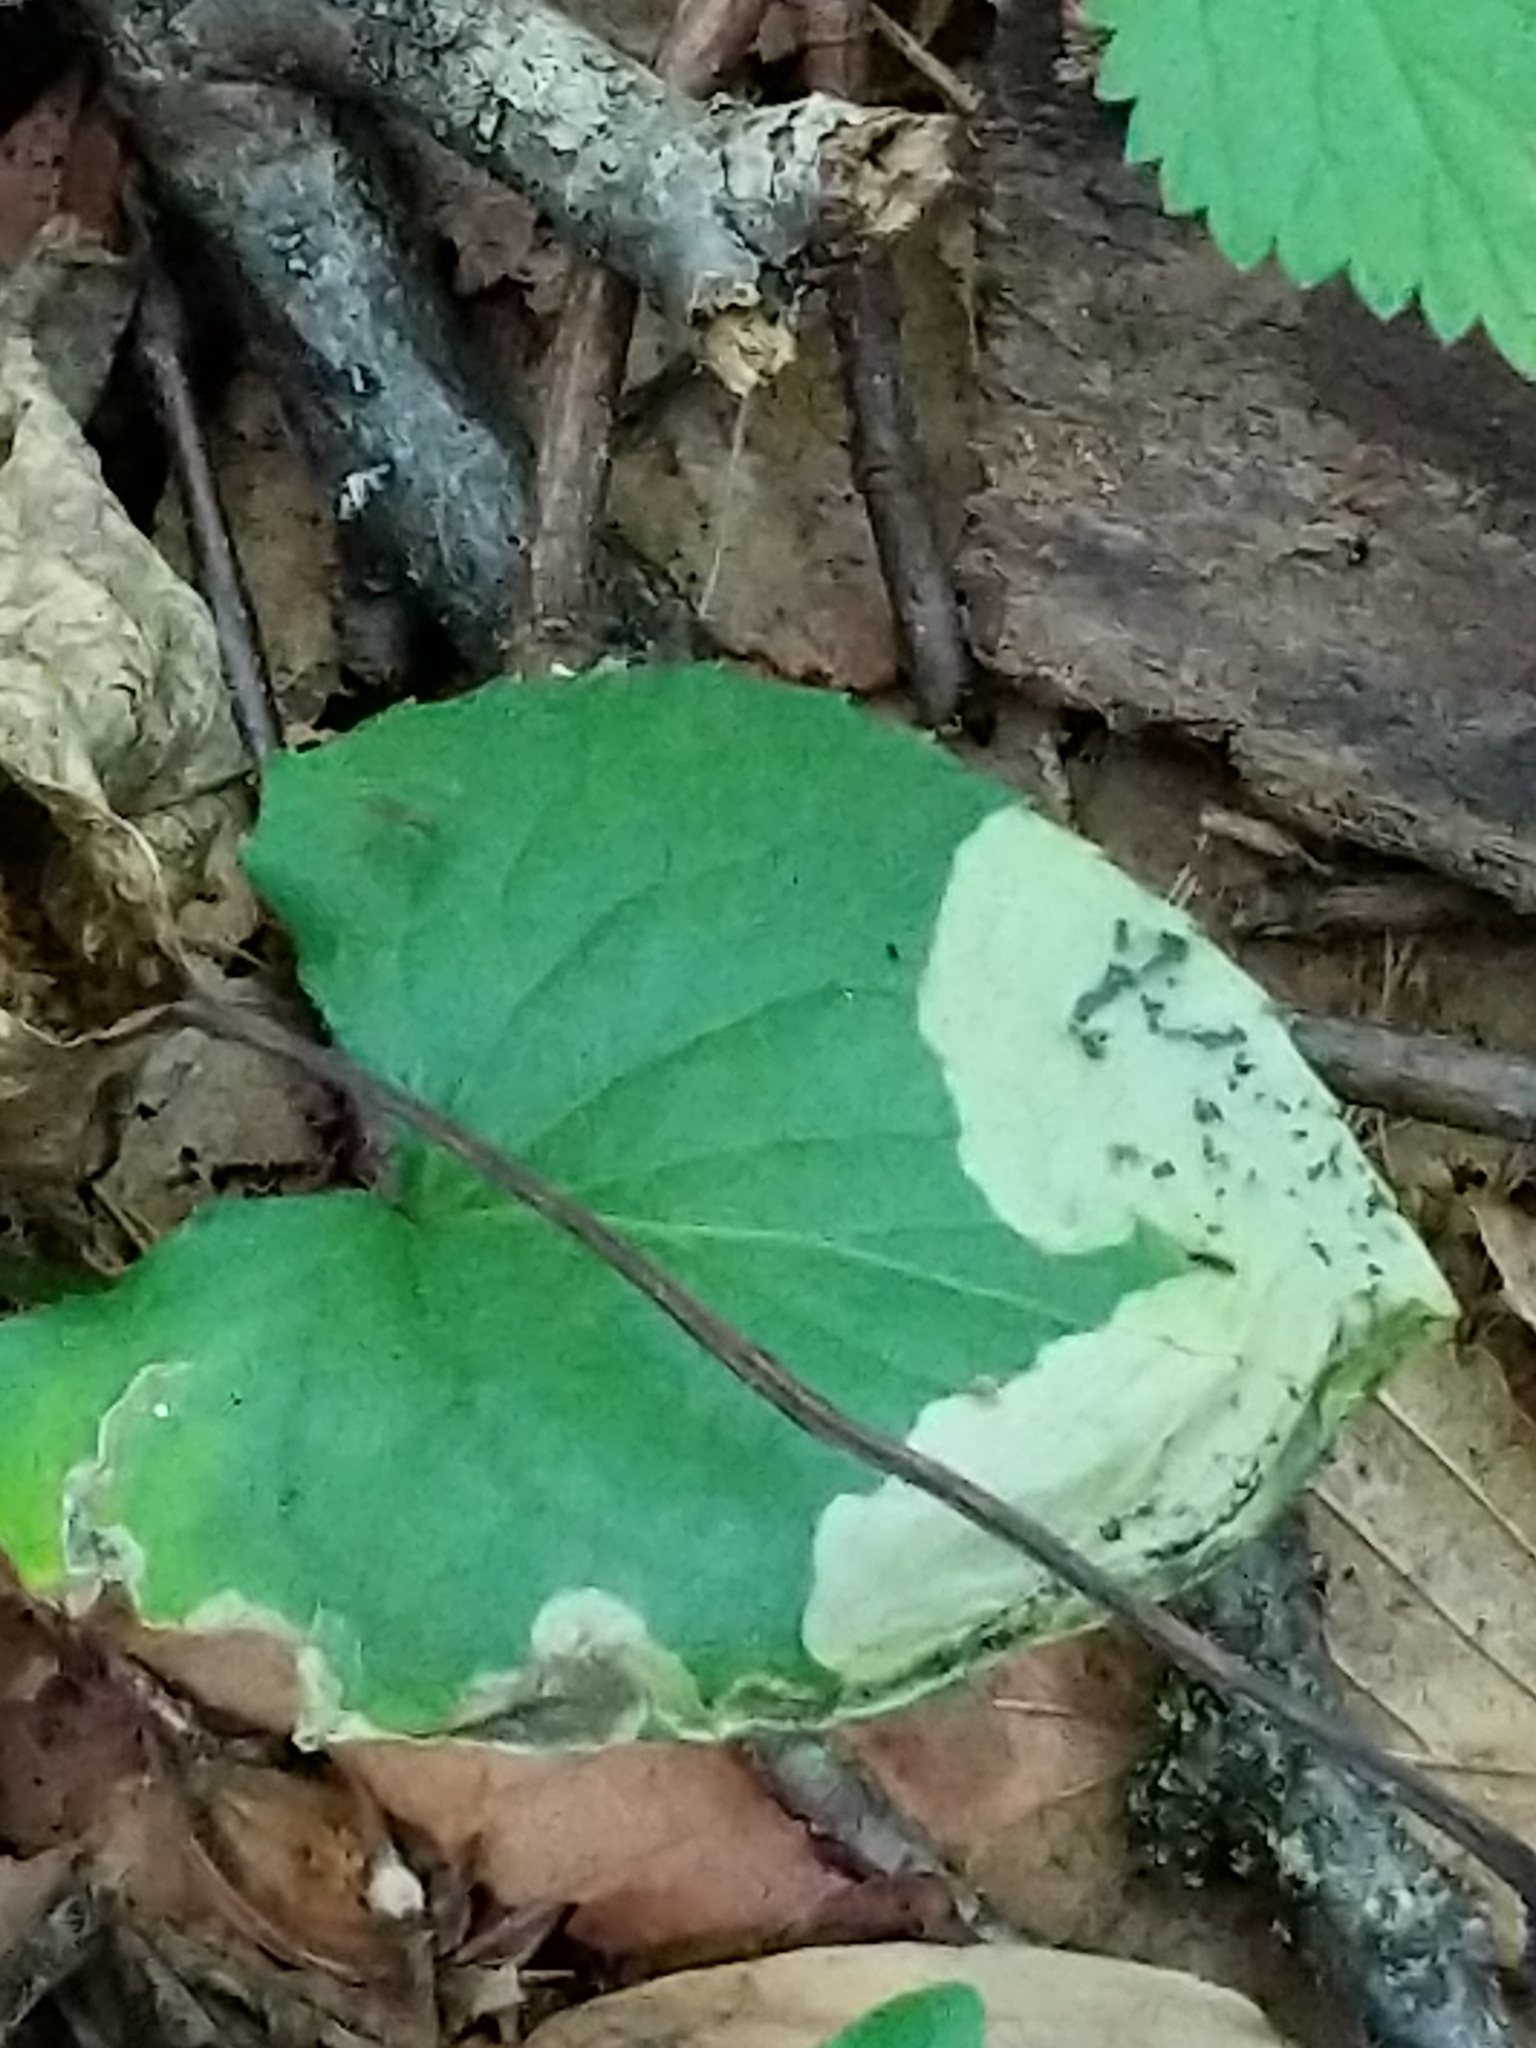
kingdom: Animalia
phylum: Arthropoda
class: Insecta
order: Hymenoptera
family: Tenthredinidae
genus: Nefusa
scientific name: Nefusa ambigua
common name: Violet leafmining sawfly
